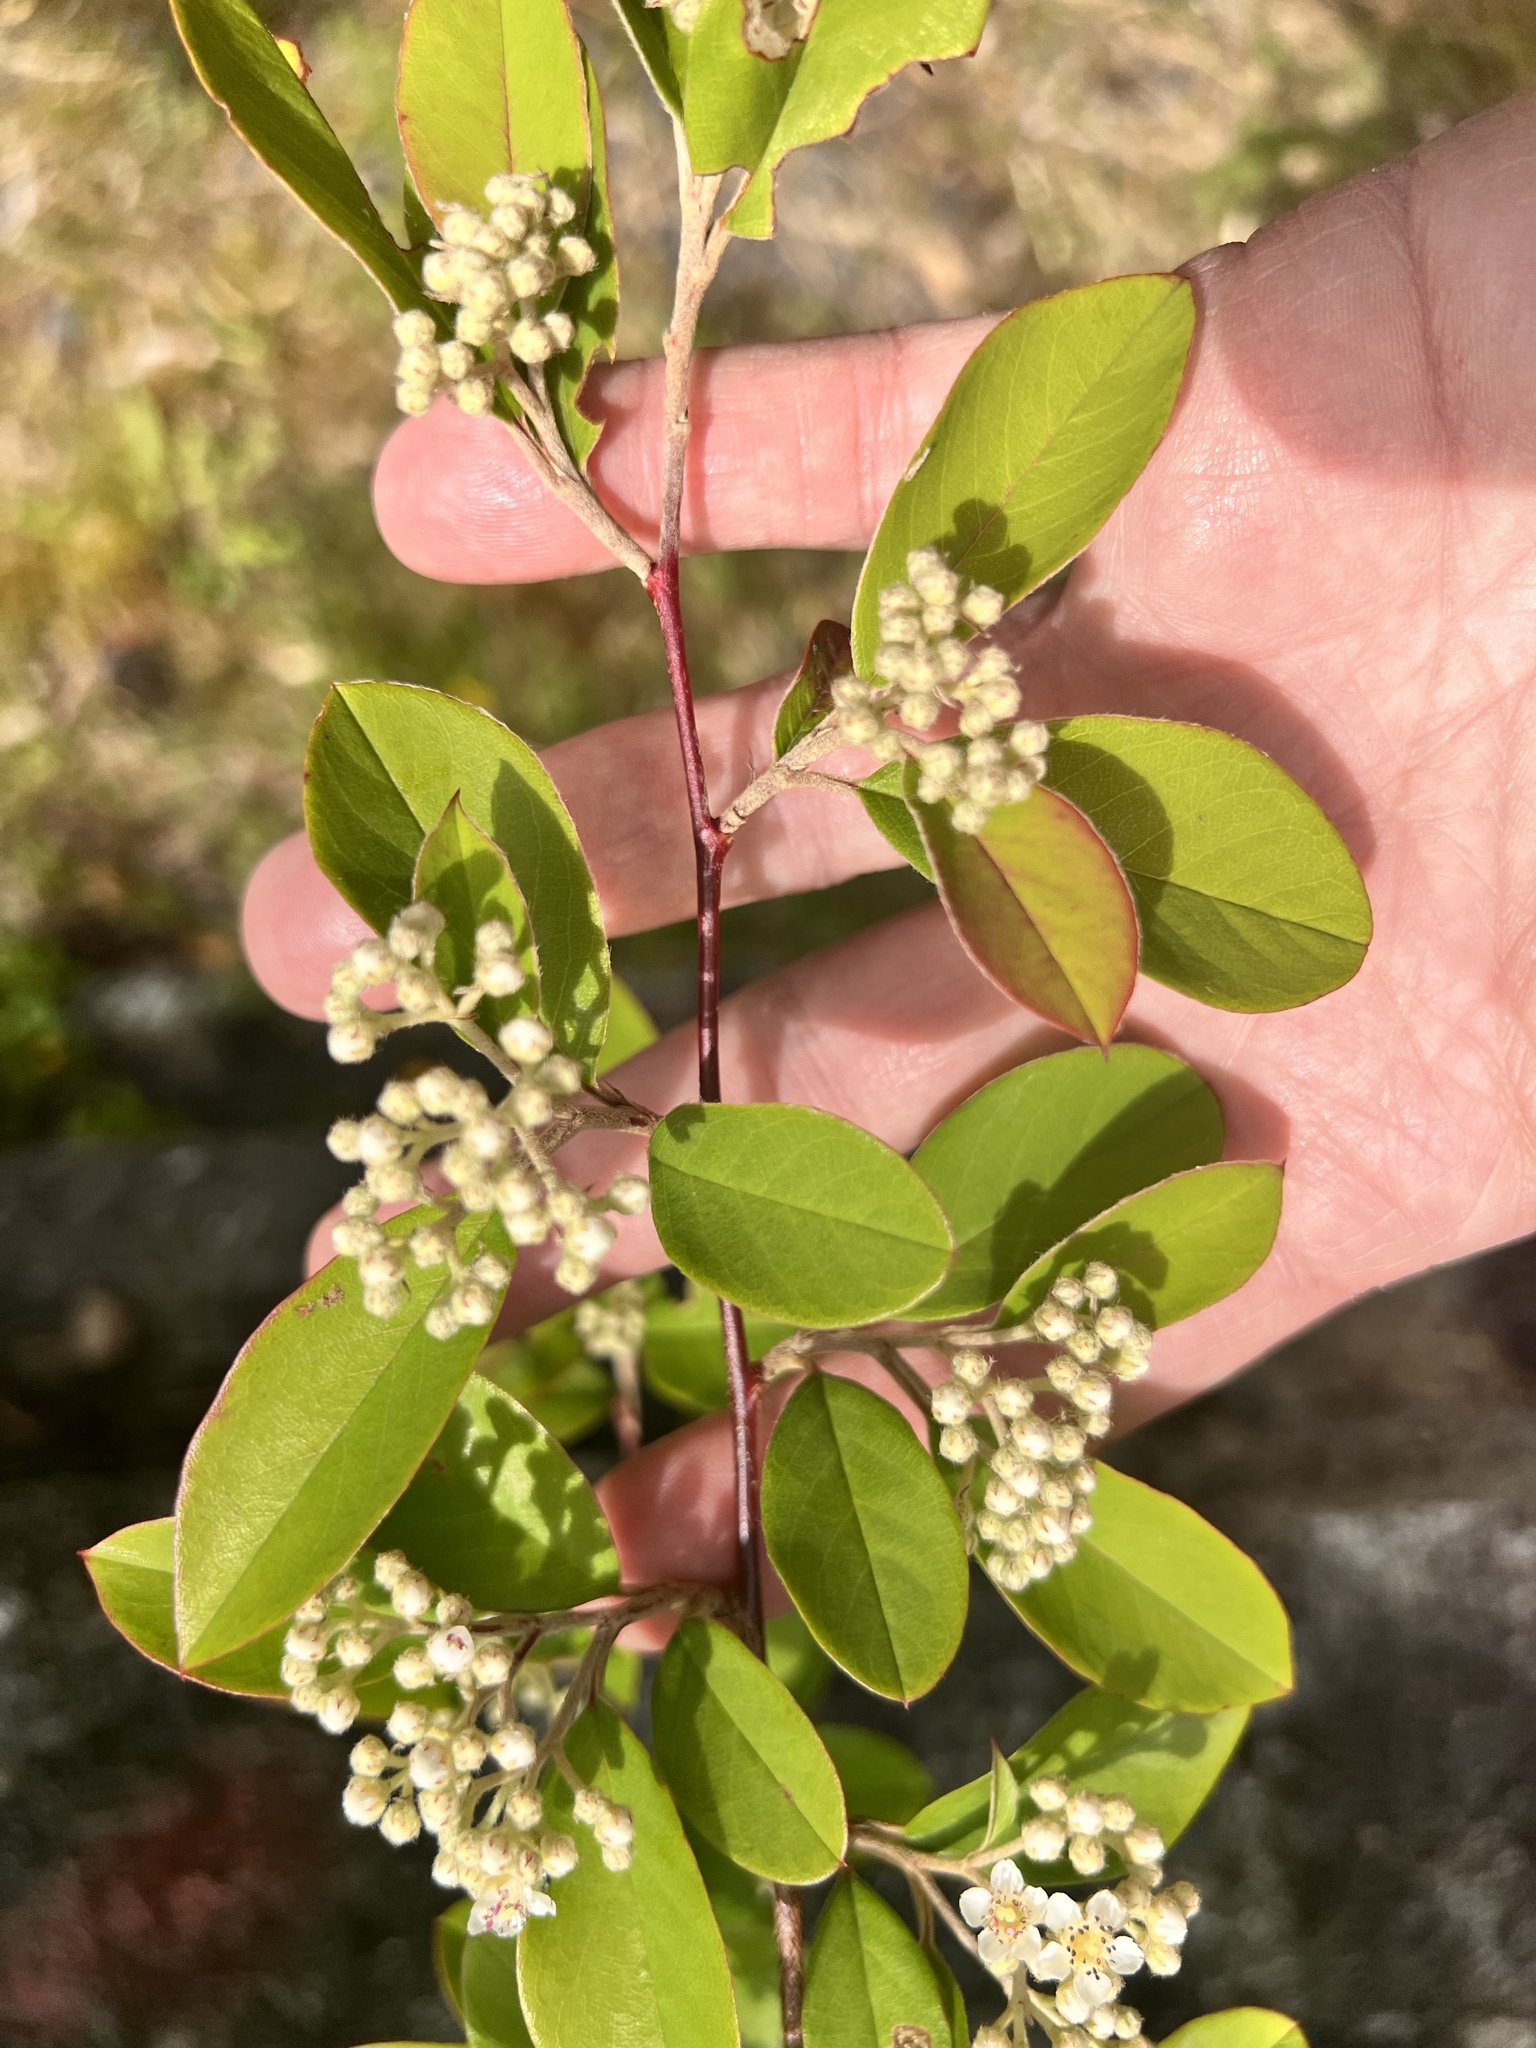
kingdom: Plantae
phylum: Tracheophyta
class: Magnoliopsida
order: Rosales
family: Rosaceae
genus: Cotoneaster
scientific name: Cotoneaster glaucophyllus
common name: Glaucous cotoneaster
